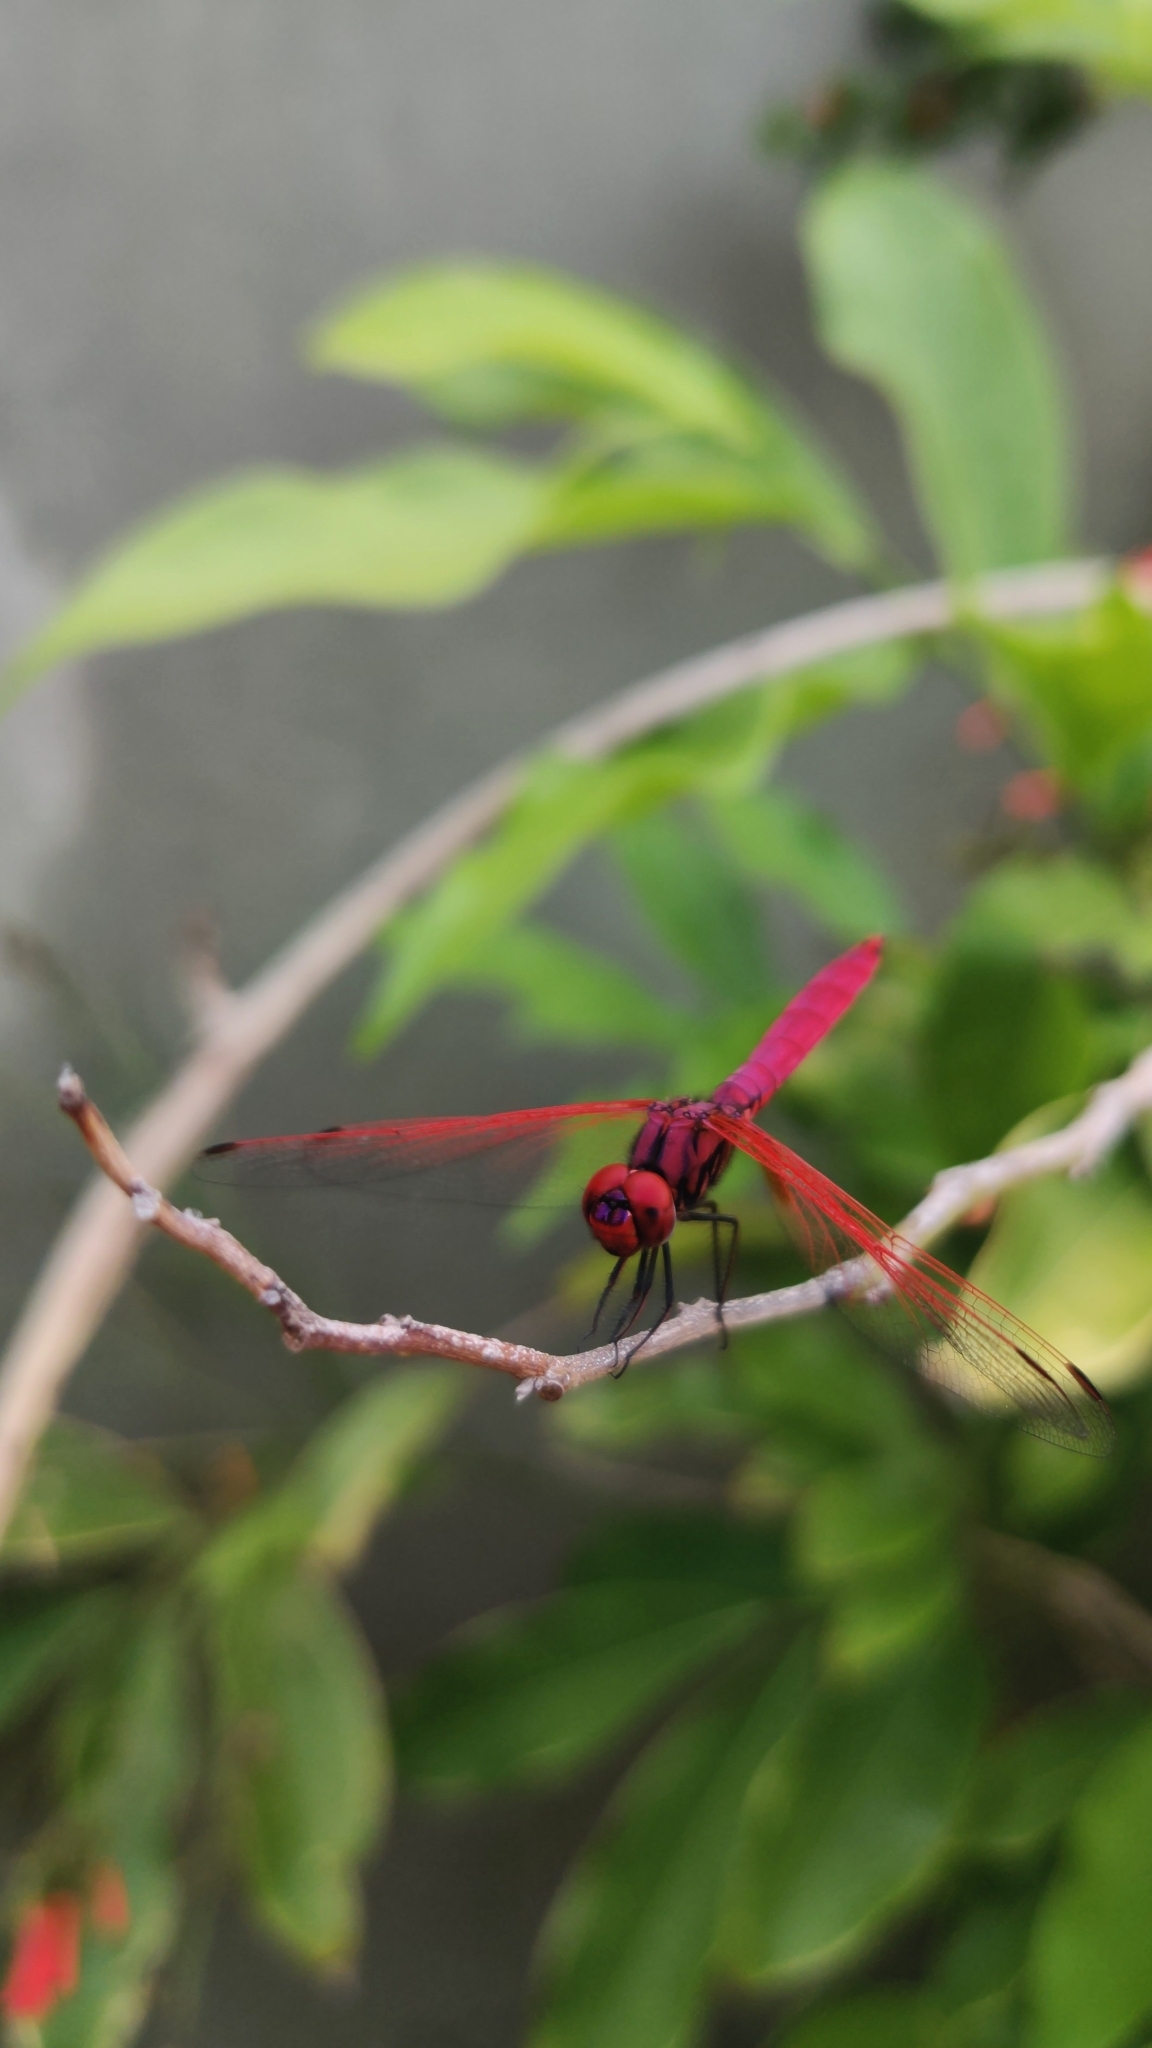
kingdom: Animalia
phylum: Arthropoda
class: Insecta
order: Odonata
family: Libellulidae
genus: Trithemis
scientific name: Trithemis aurora
